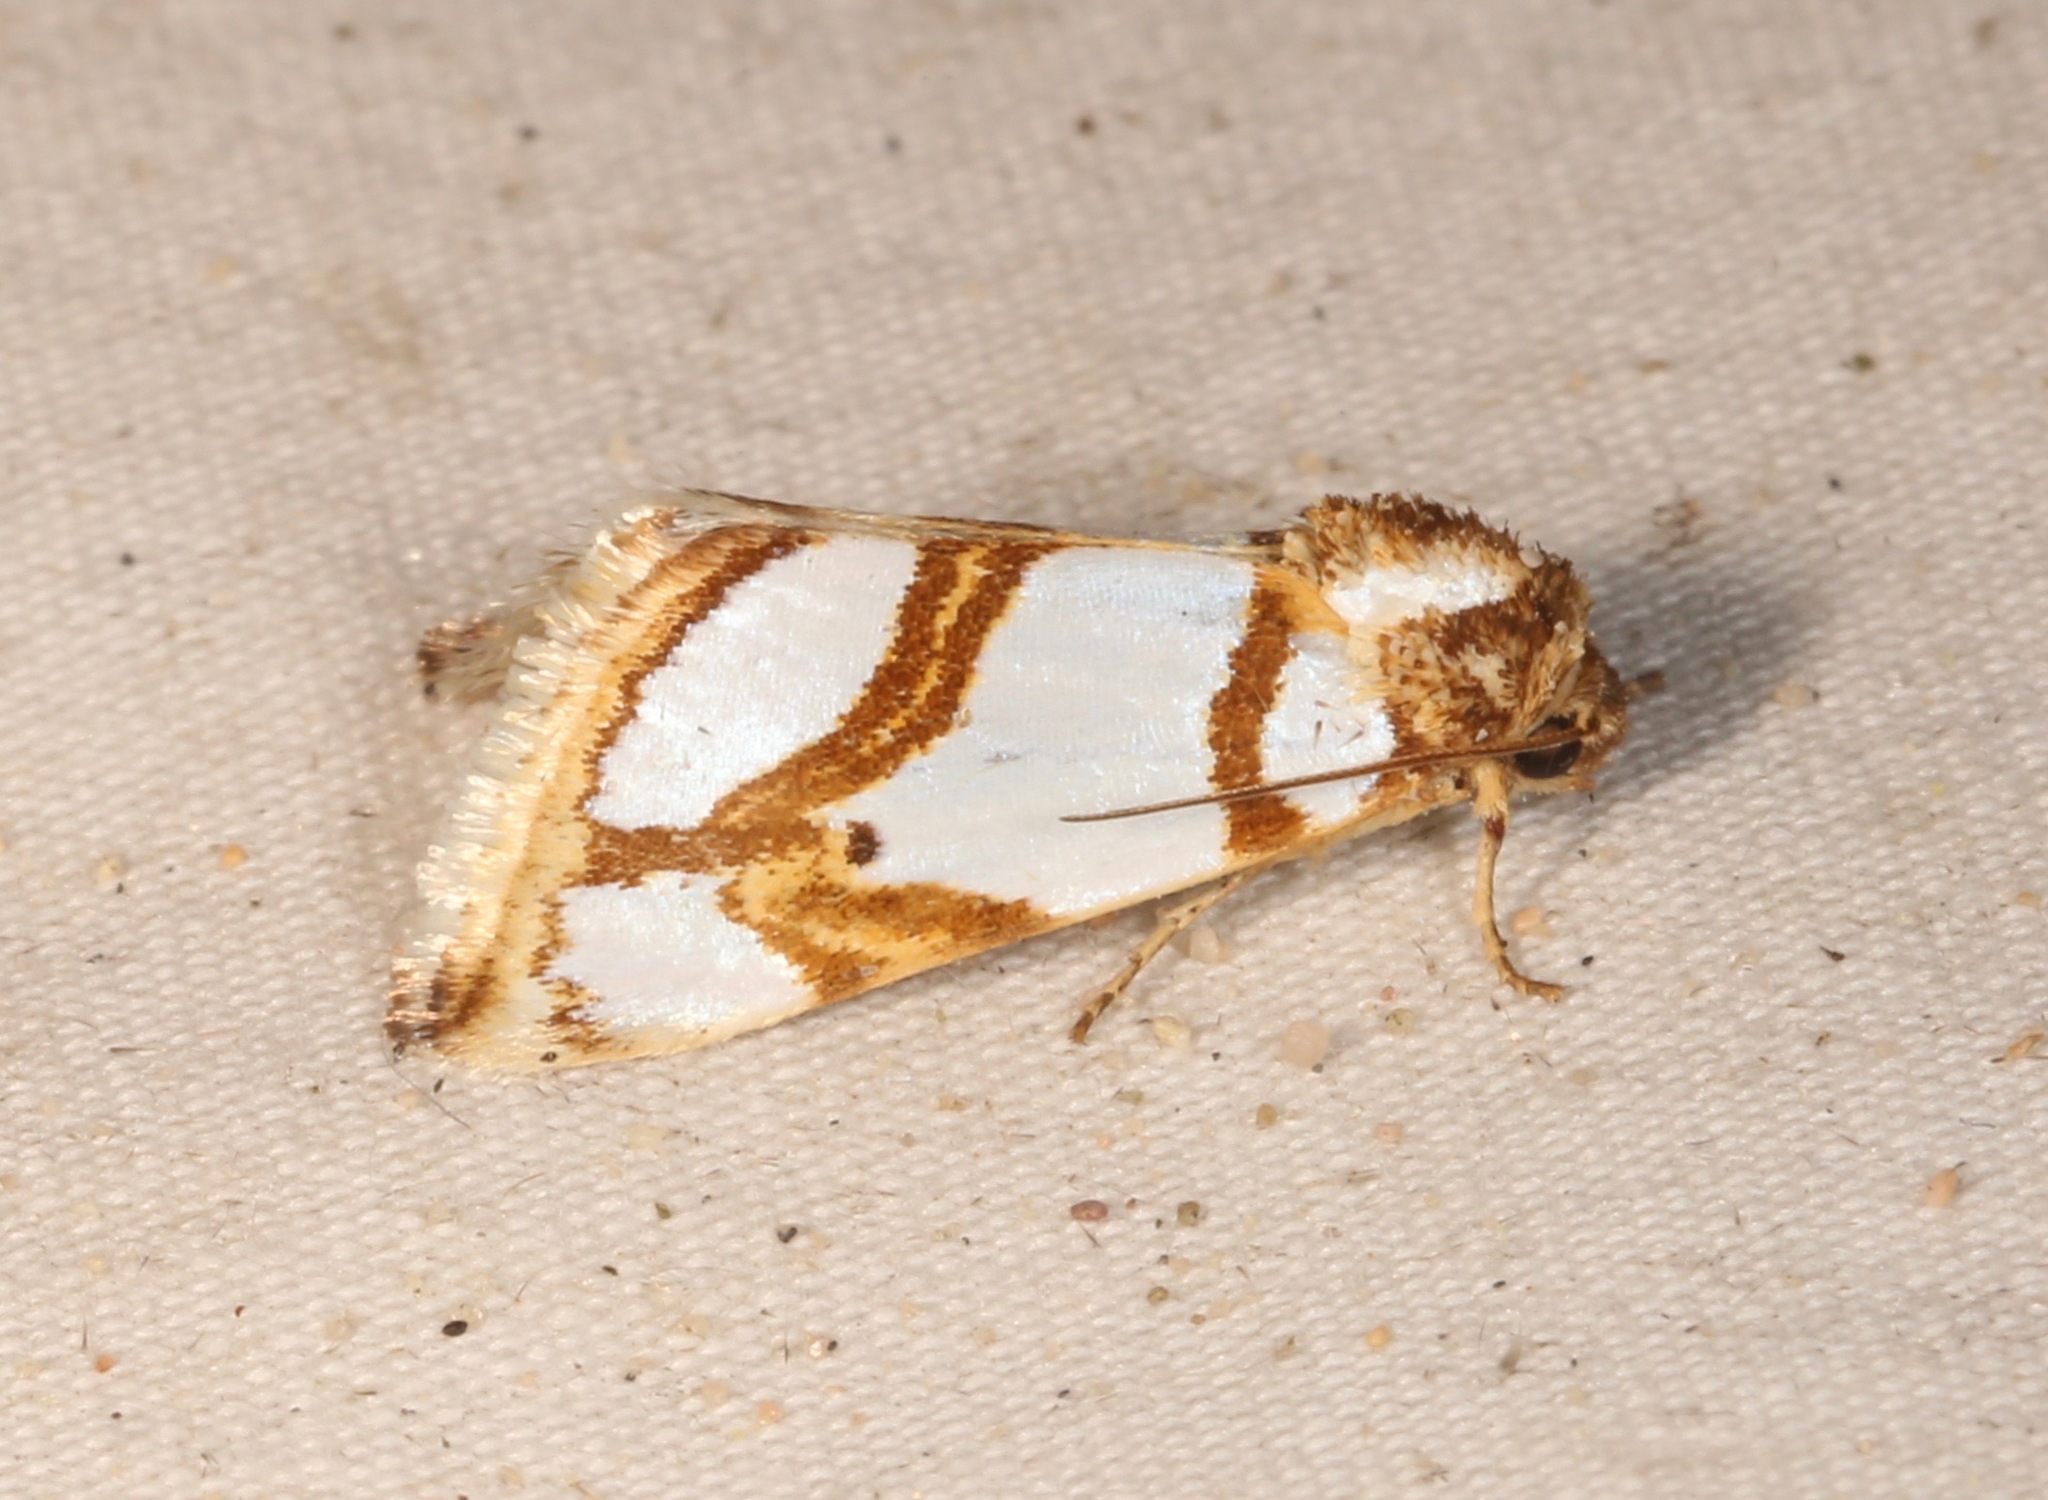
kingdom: Animalia
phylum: Arthropoda
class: Insecta
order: Lepidoptera
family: Noctuidae
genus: Argentostiria
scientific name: Argentostiria koebelei
